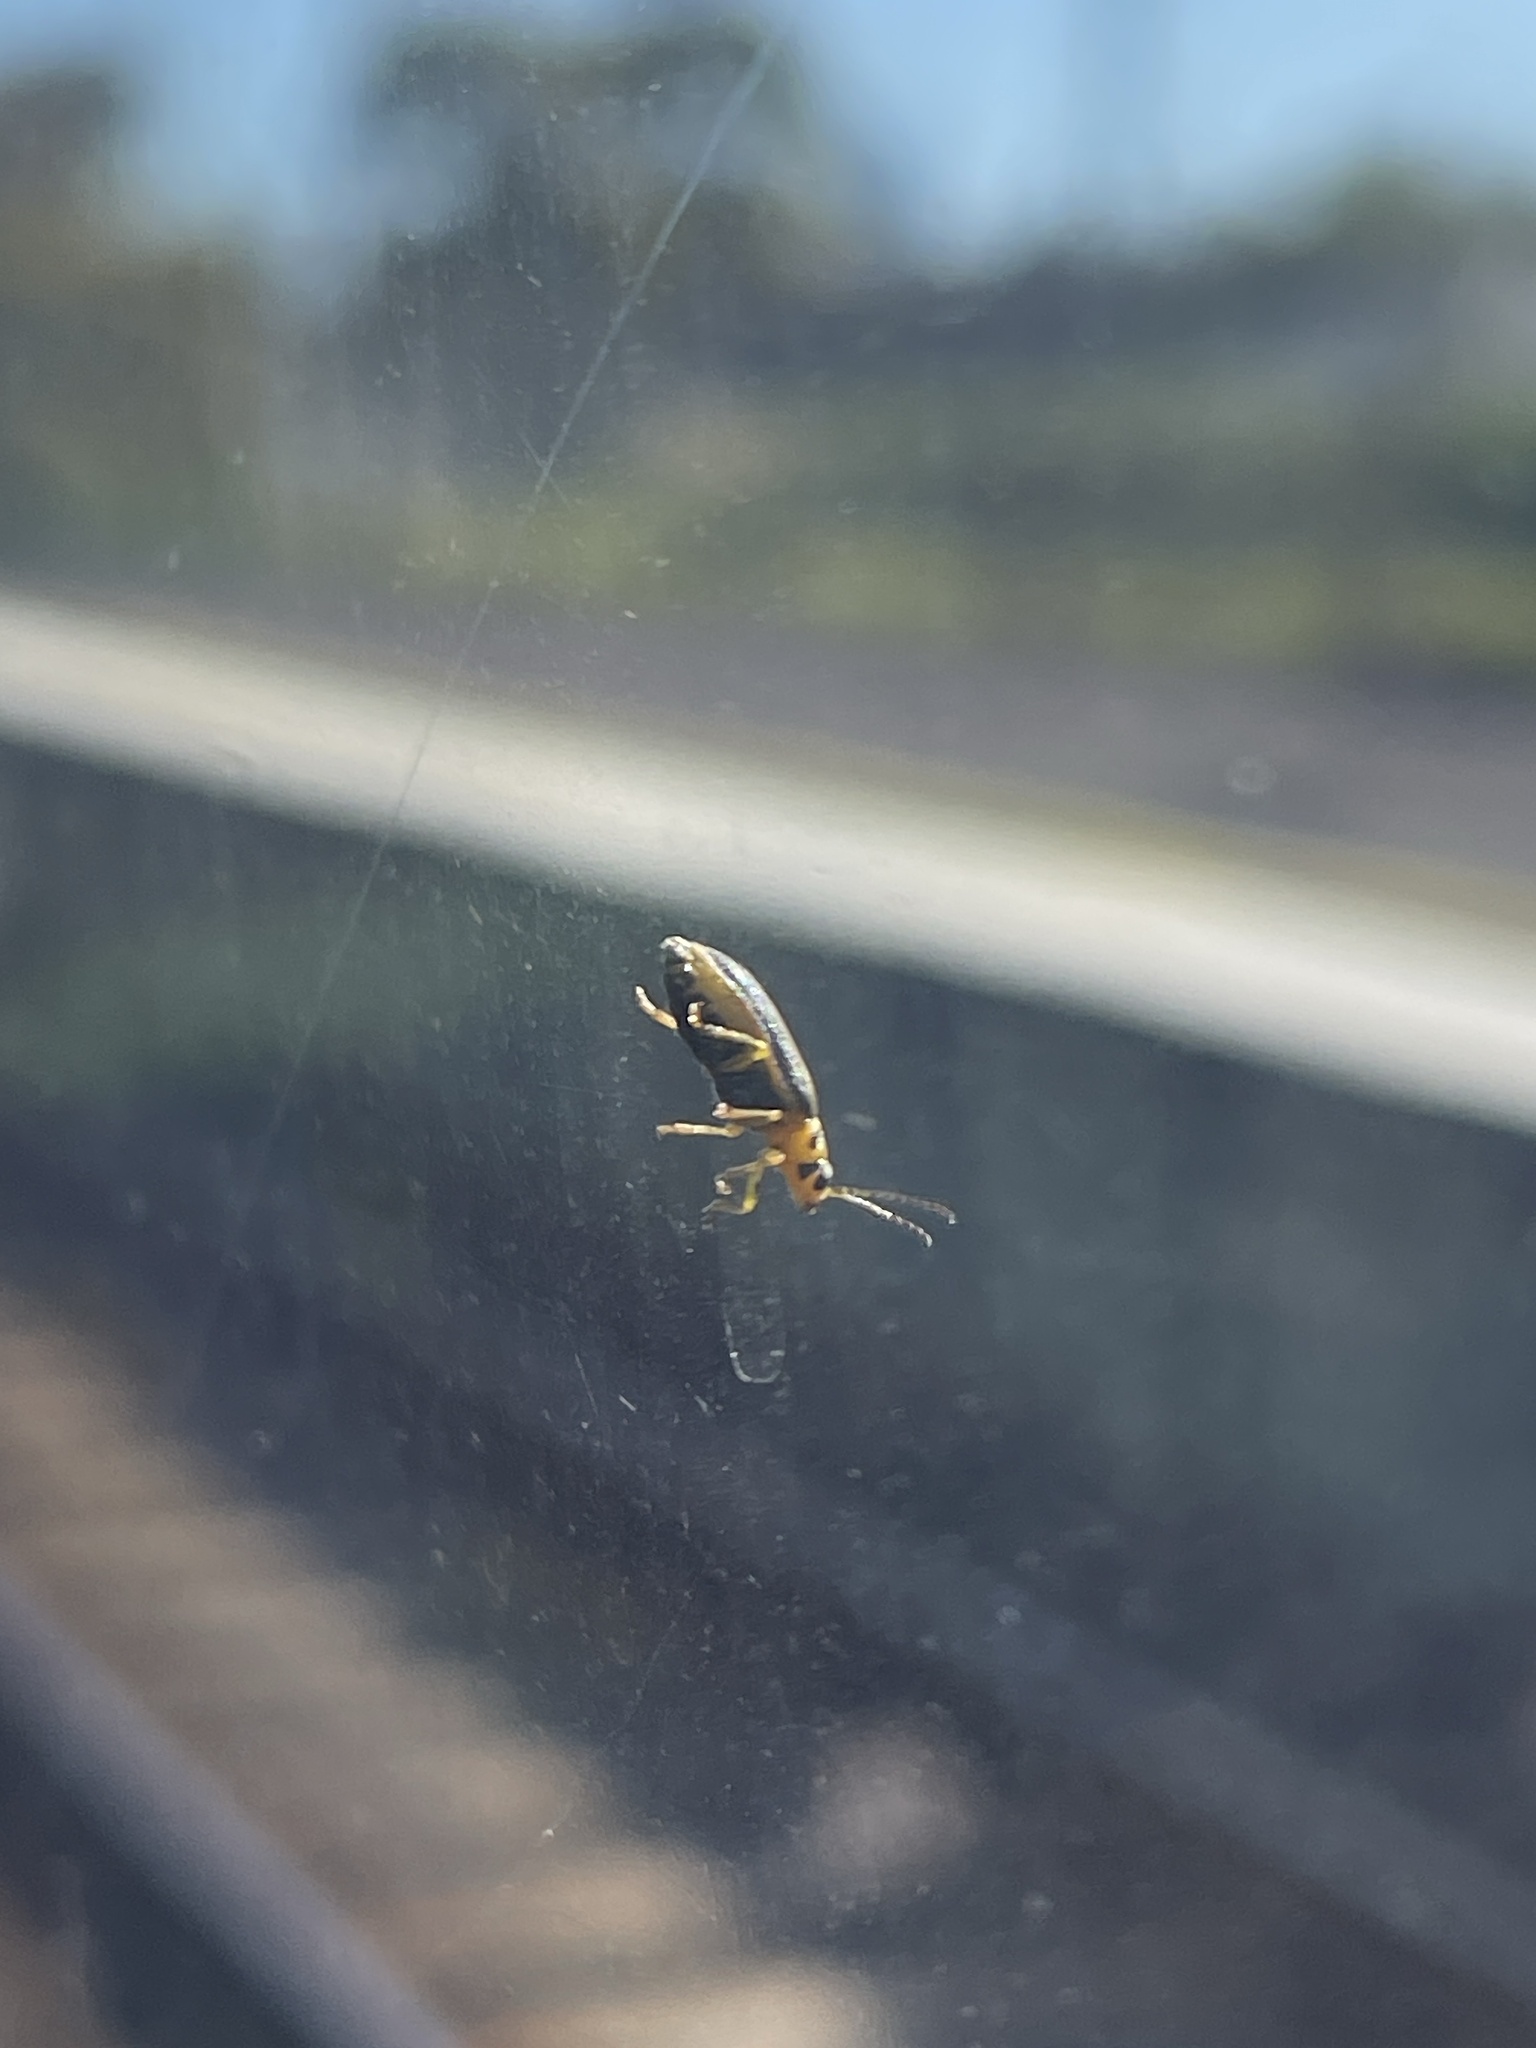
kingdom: Animalia
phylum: Arthropoda
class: Insecta
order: Coleoptera
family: Chrysomelidae
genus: Xanthogaleruca
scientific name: Xanthogaleruca luteola
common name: Elm leaf beetle
